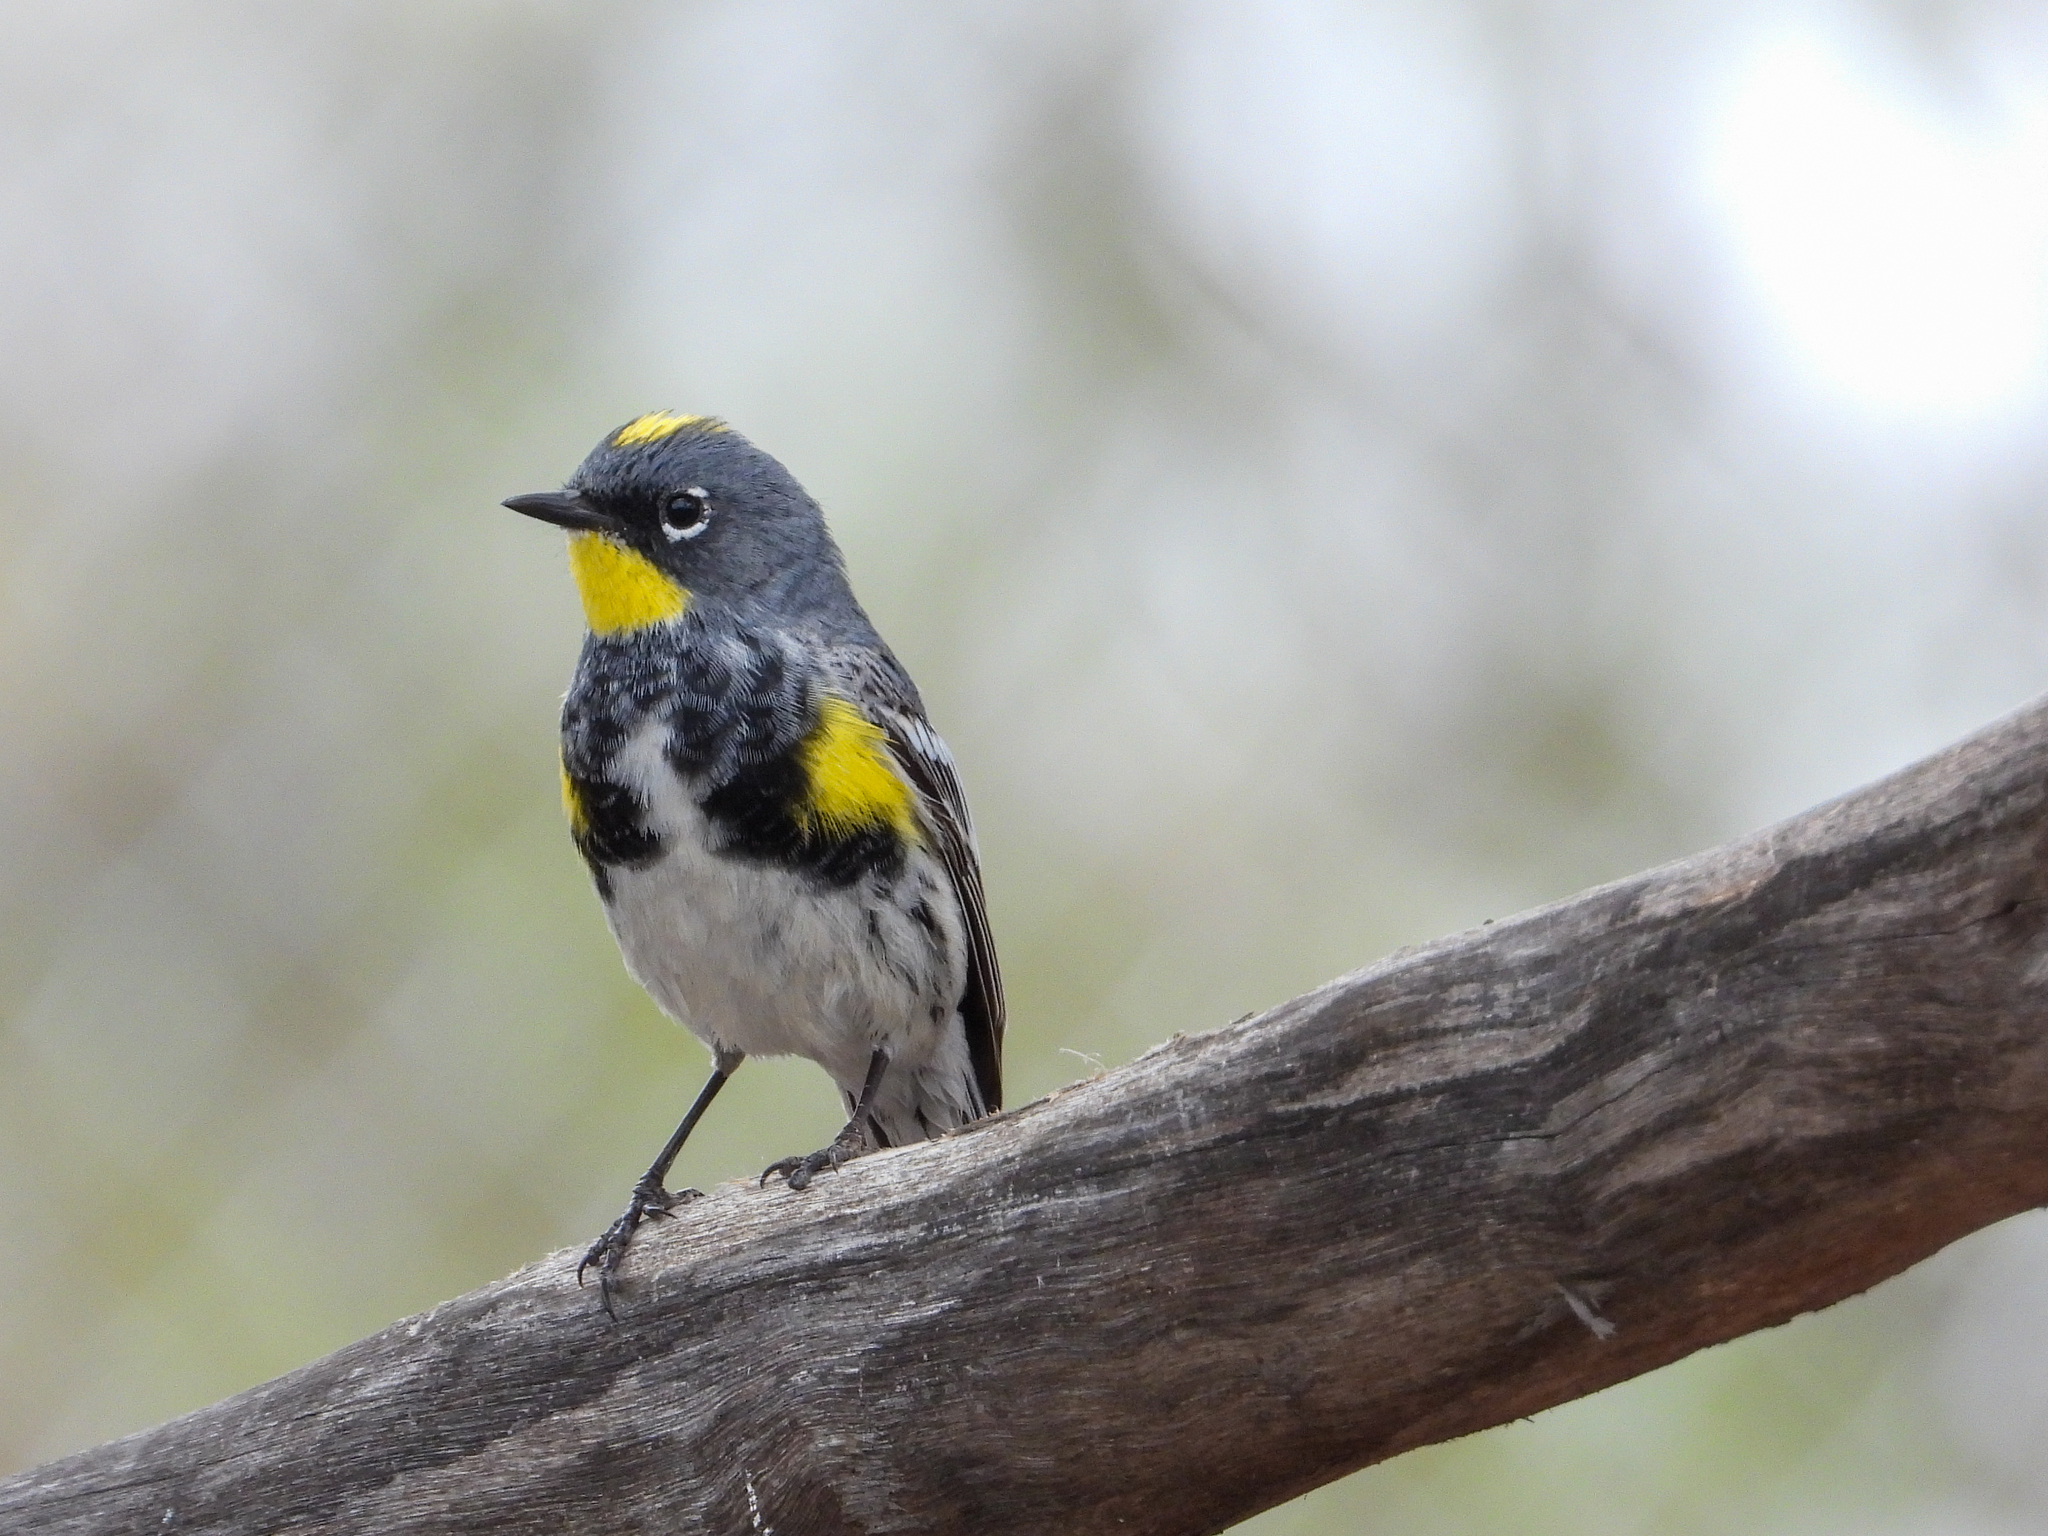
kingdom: Animalia
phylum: Chordata
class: Aves
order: Passeriformes
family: Parulidae
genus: Setophaga
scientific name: Setophaga coronata
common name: Myrtle warbler
